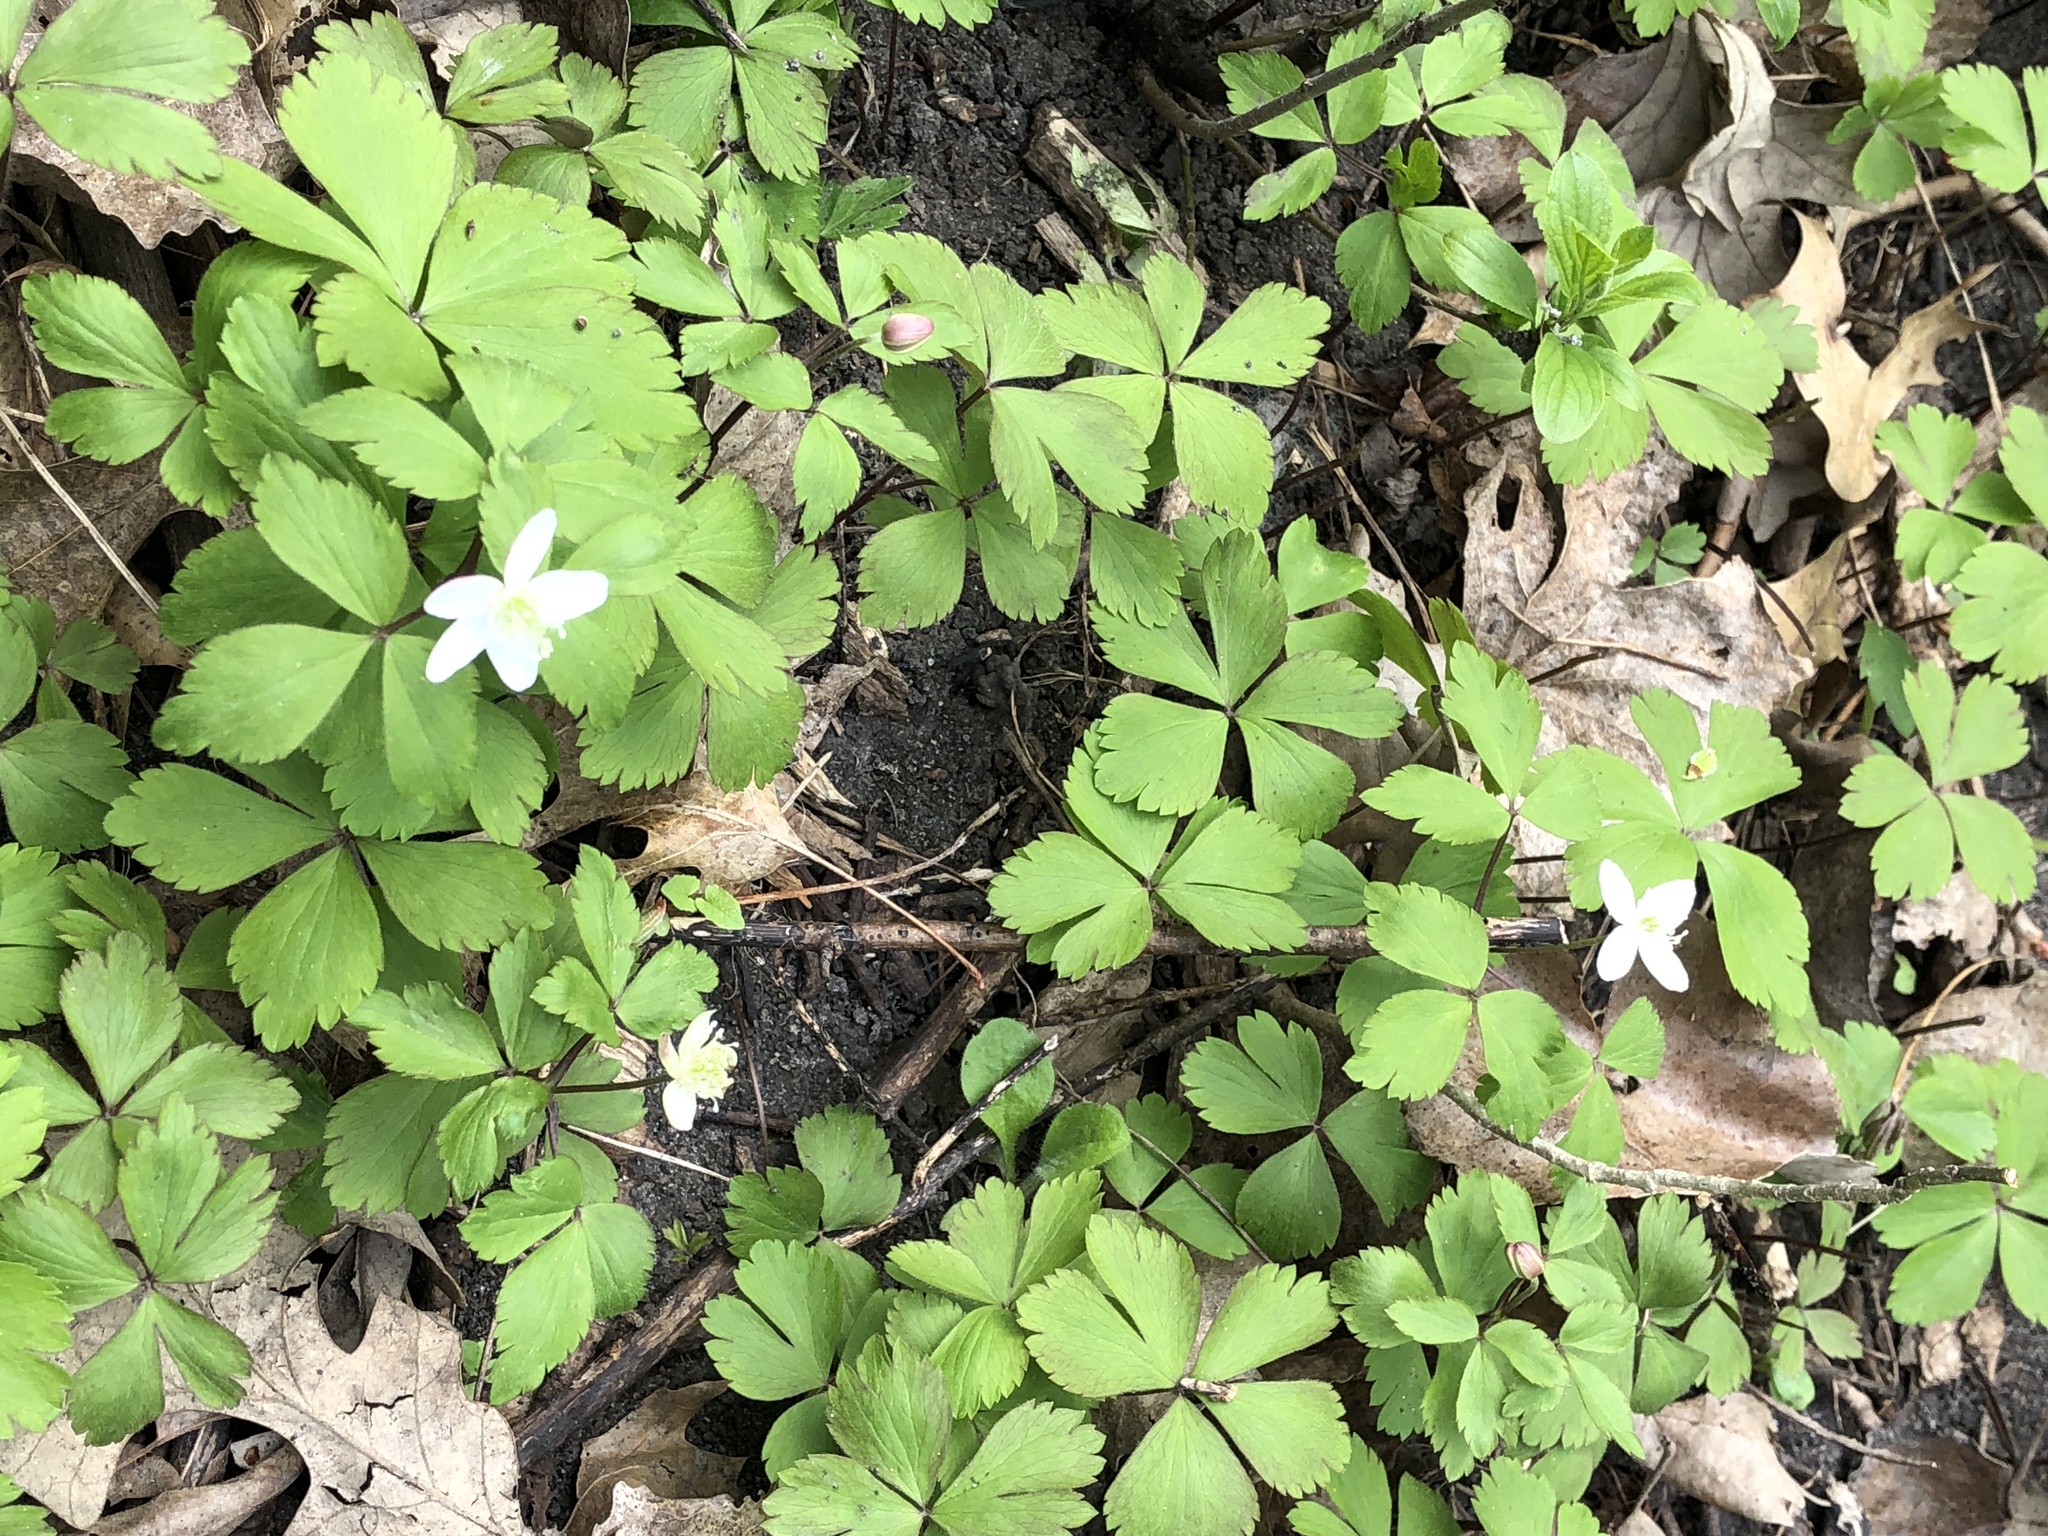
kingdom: Plantae
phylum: Tracheophyta
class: Magnoliopsida
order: Ranunculales
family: Ranunculaceae
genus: Anemone
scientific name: Anemone quinquefolia
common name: Wood anemone
